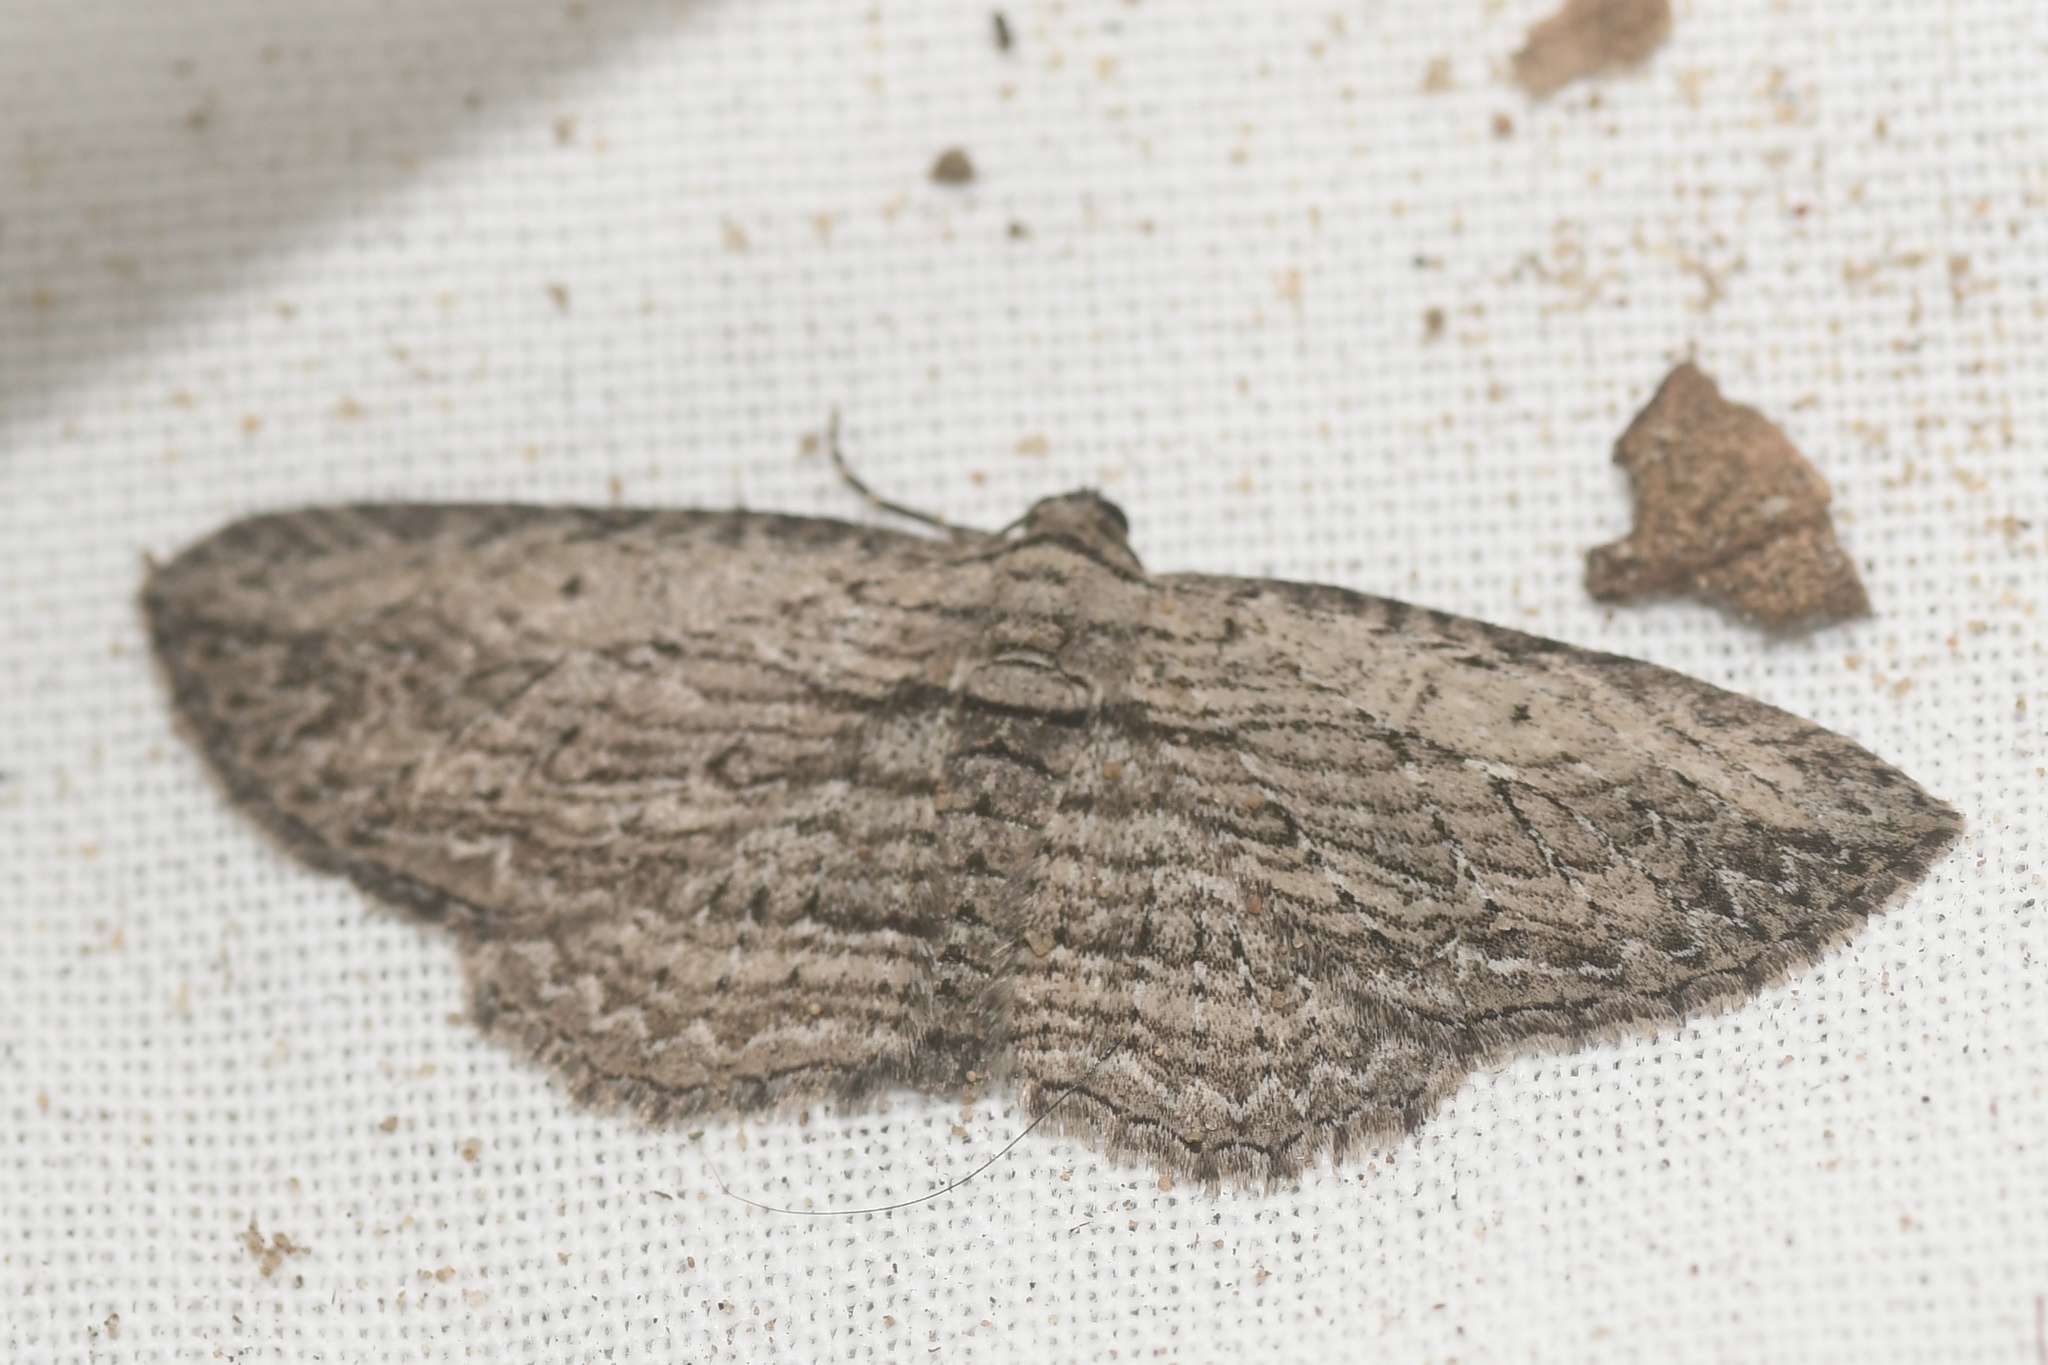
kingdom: Animalia
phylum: Arthropoda
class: Insecta
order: Lepidoptera
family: Geometridae
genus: Horisme
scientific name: Horisme intestinata
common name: Brown bark carpet
